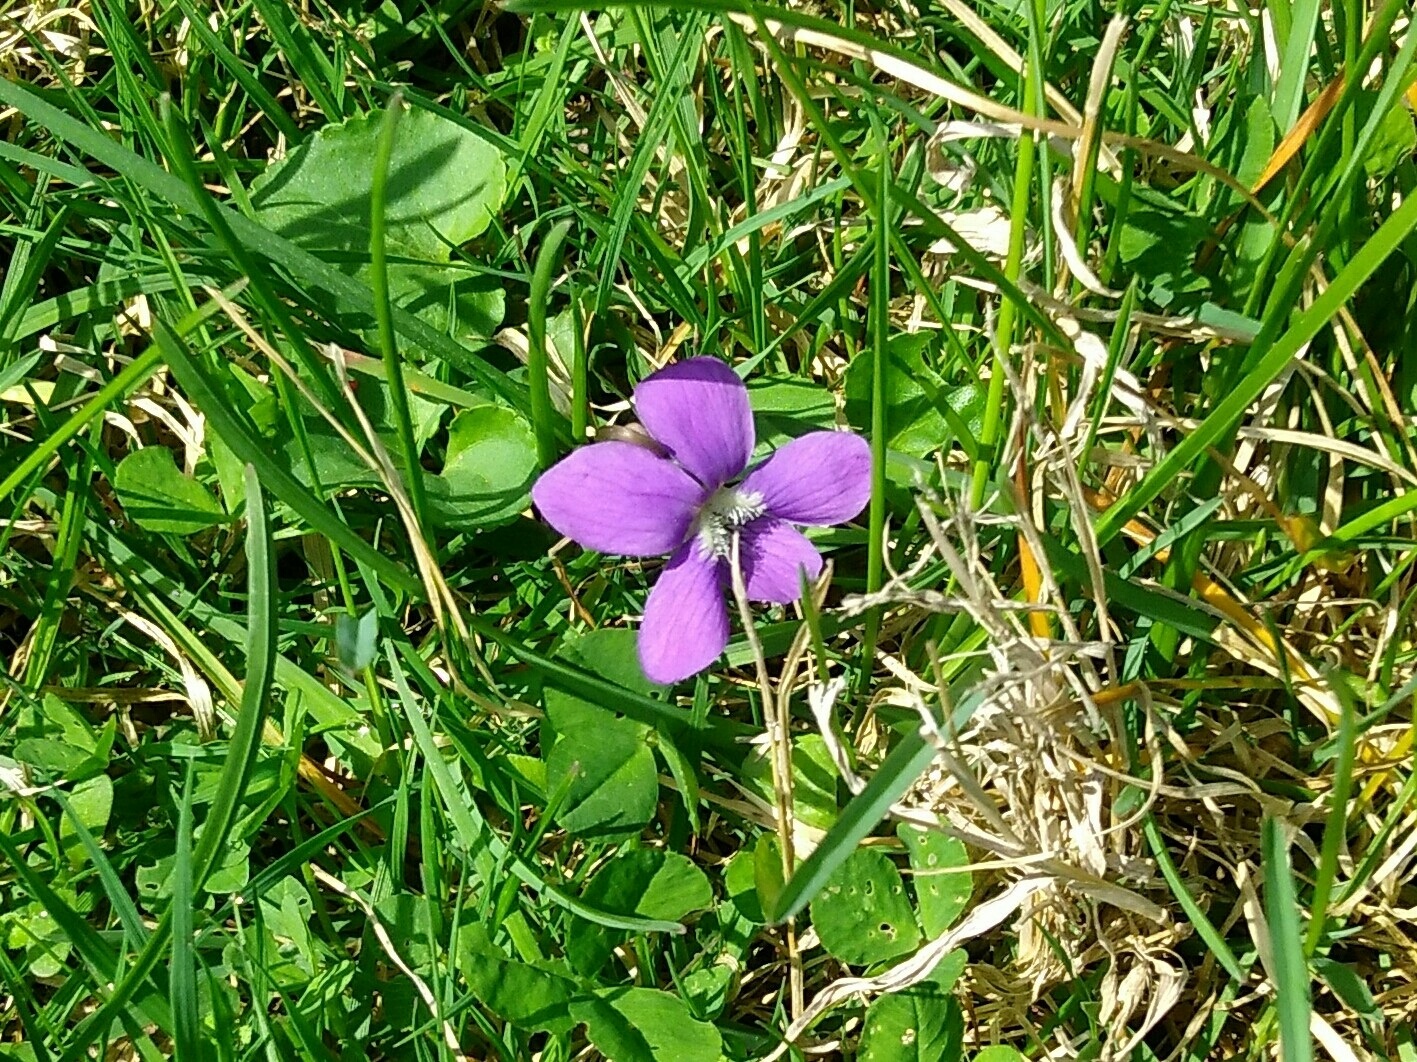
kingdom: Plantae
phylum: Tracheophyta
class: Magnoliopsida
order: Malpighiales
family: Violaceae
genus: Viola
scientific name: Viola sororia
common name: Dooryard violet
